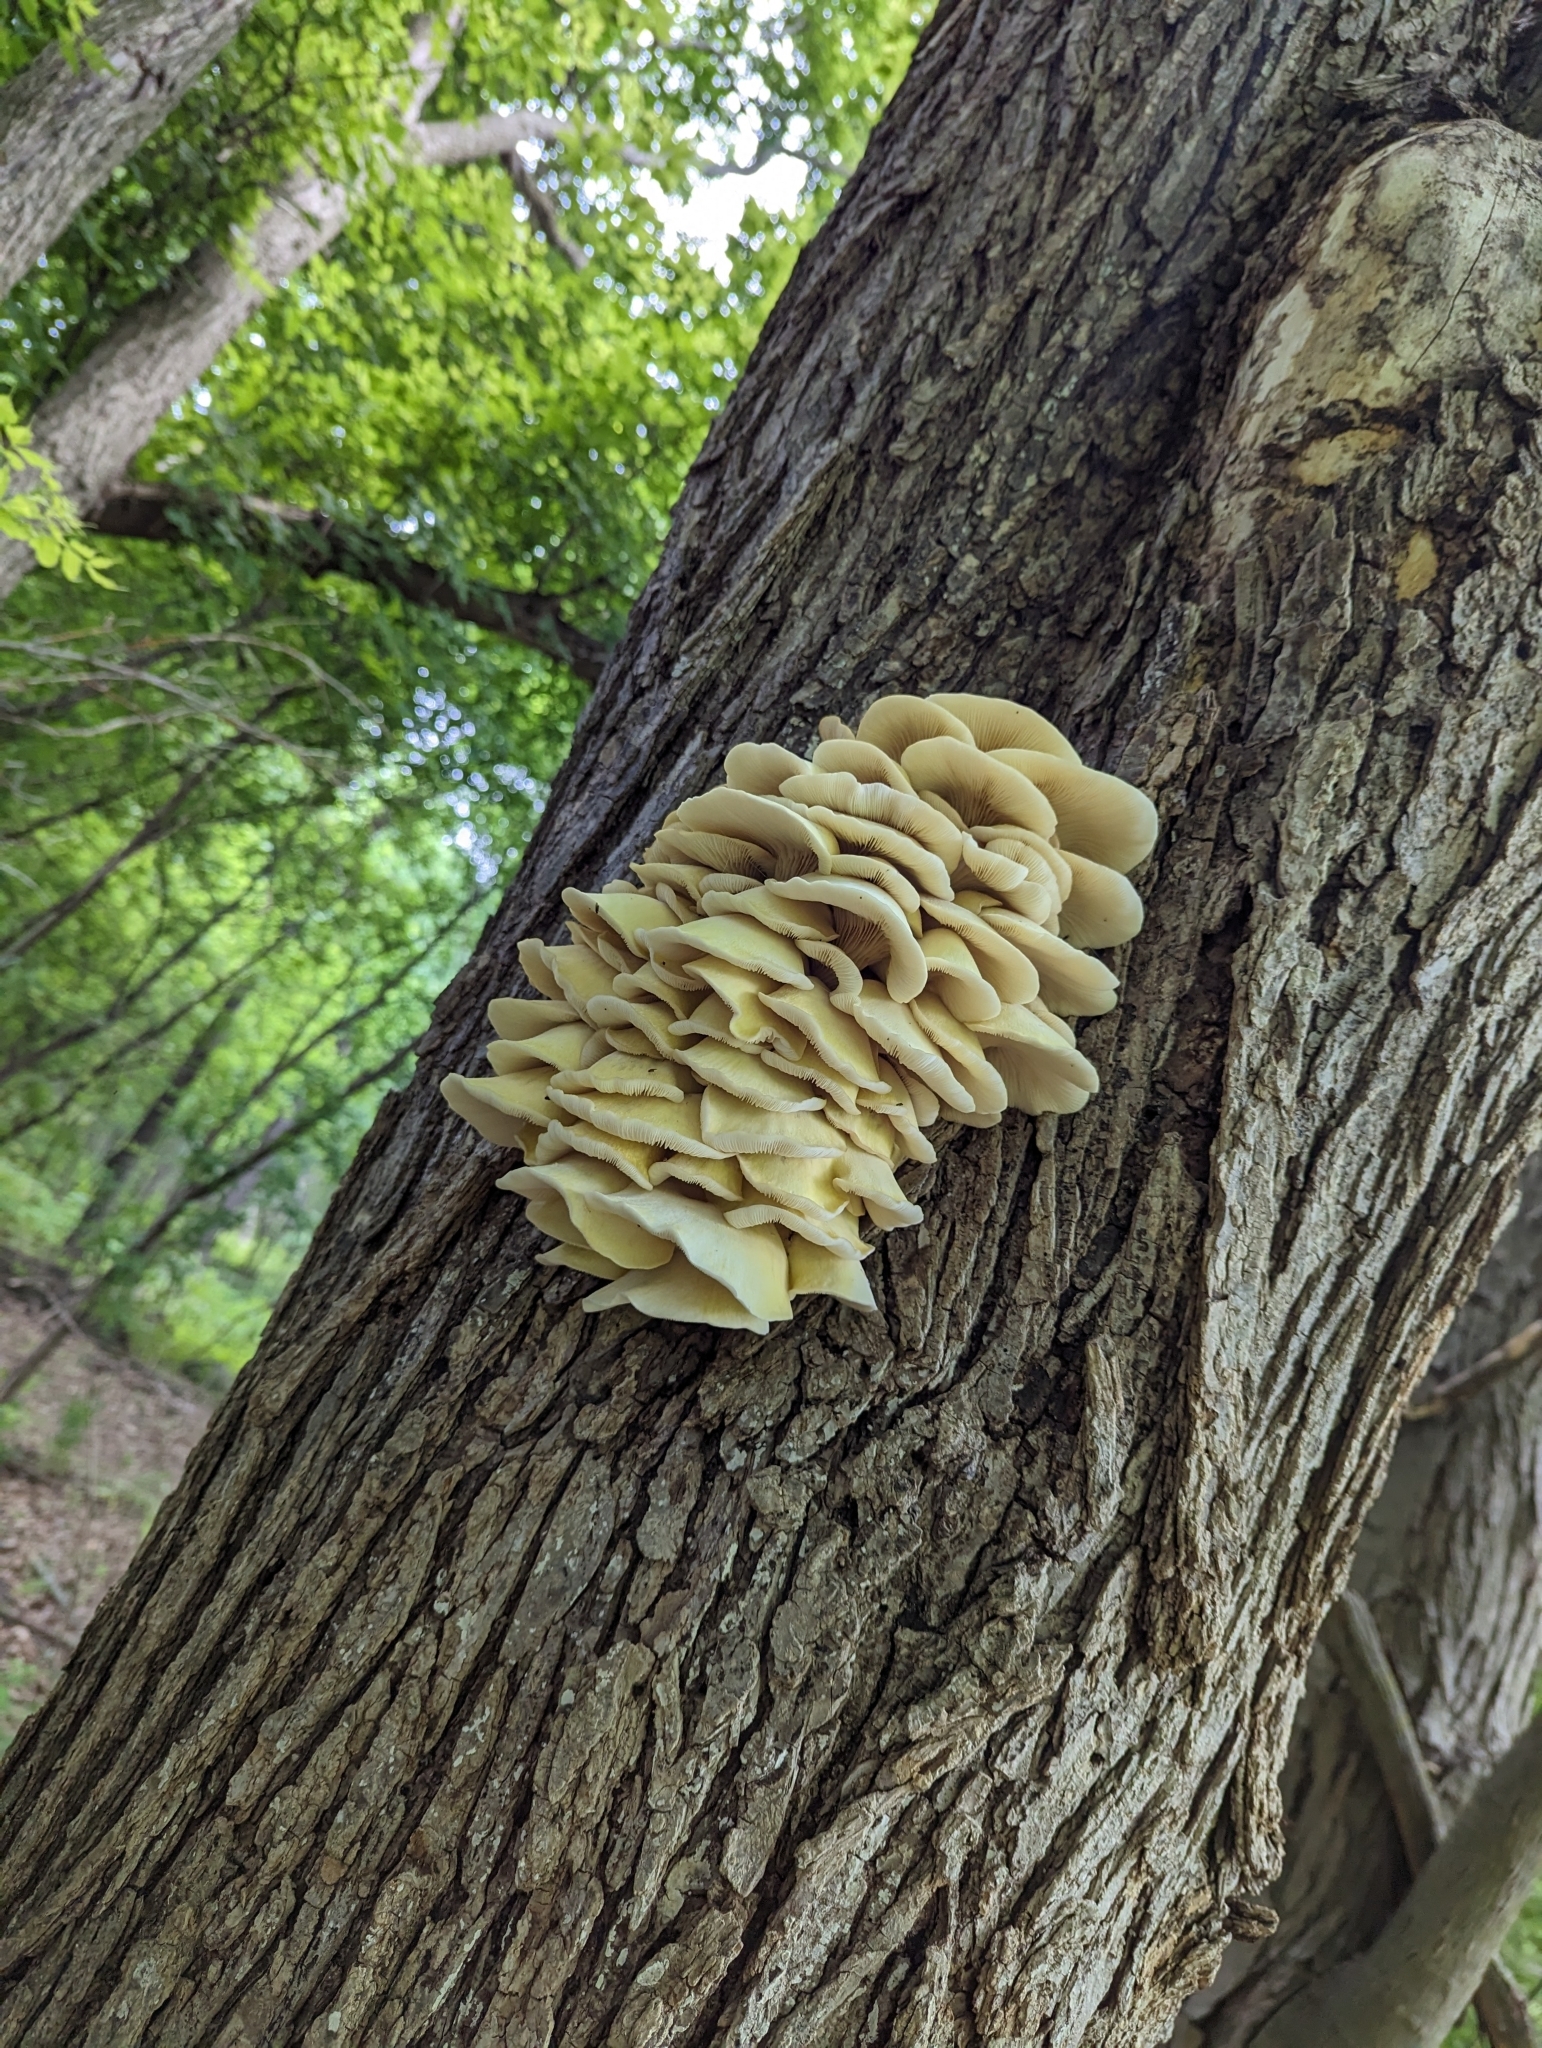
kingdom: Fungi
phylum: Basidiomycota
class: Agaricomycetes
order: Agaricales
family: Pleurotaceae
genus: Pleurotus
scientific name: Pleurotus citrinopileatus
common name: Golden oyster mushroom
